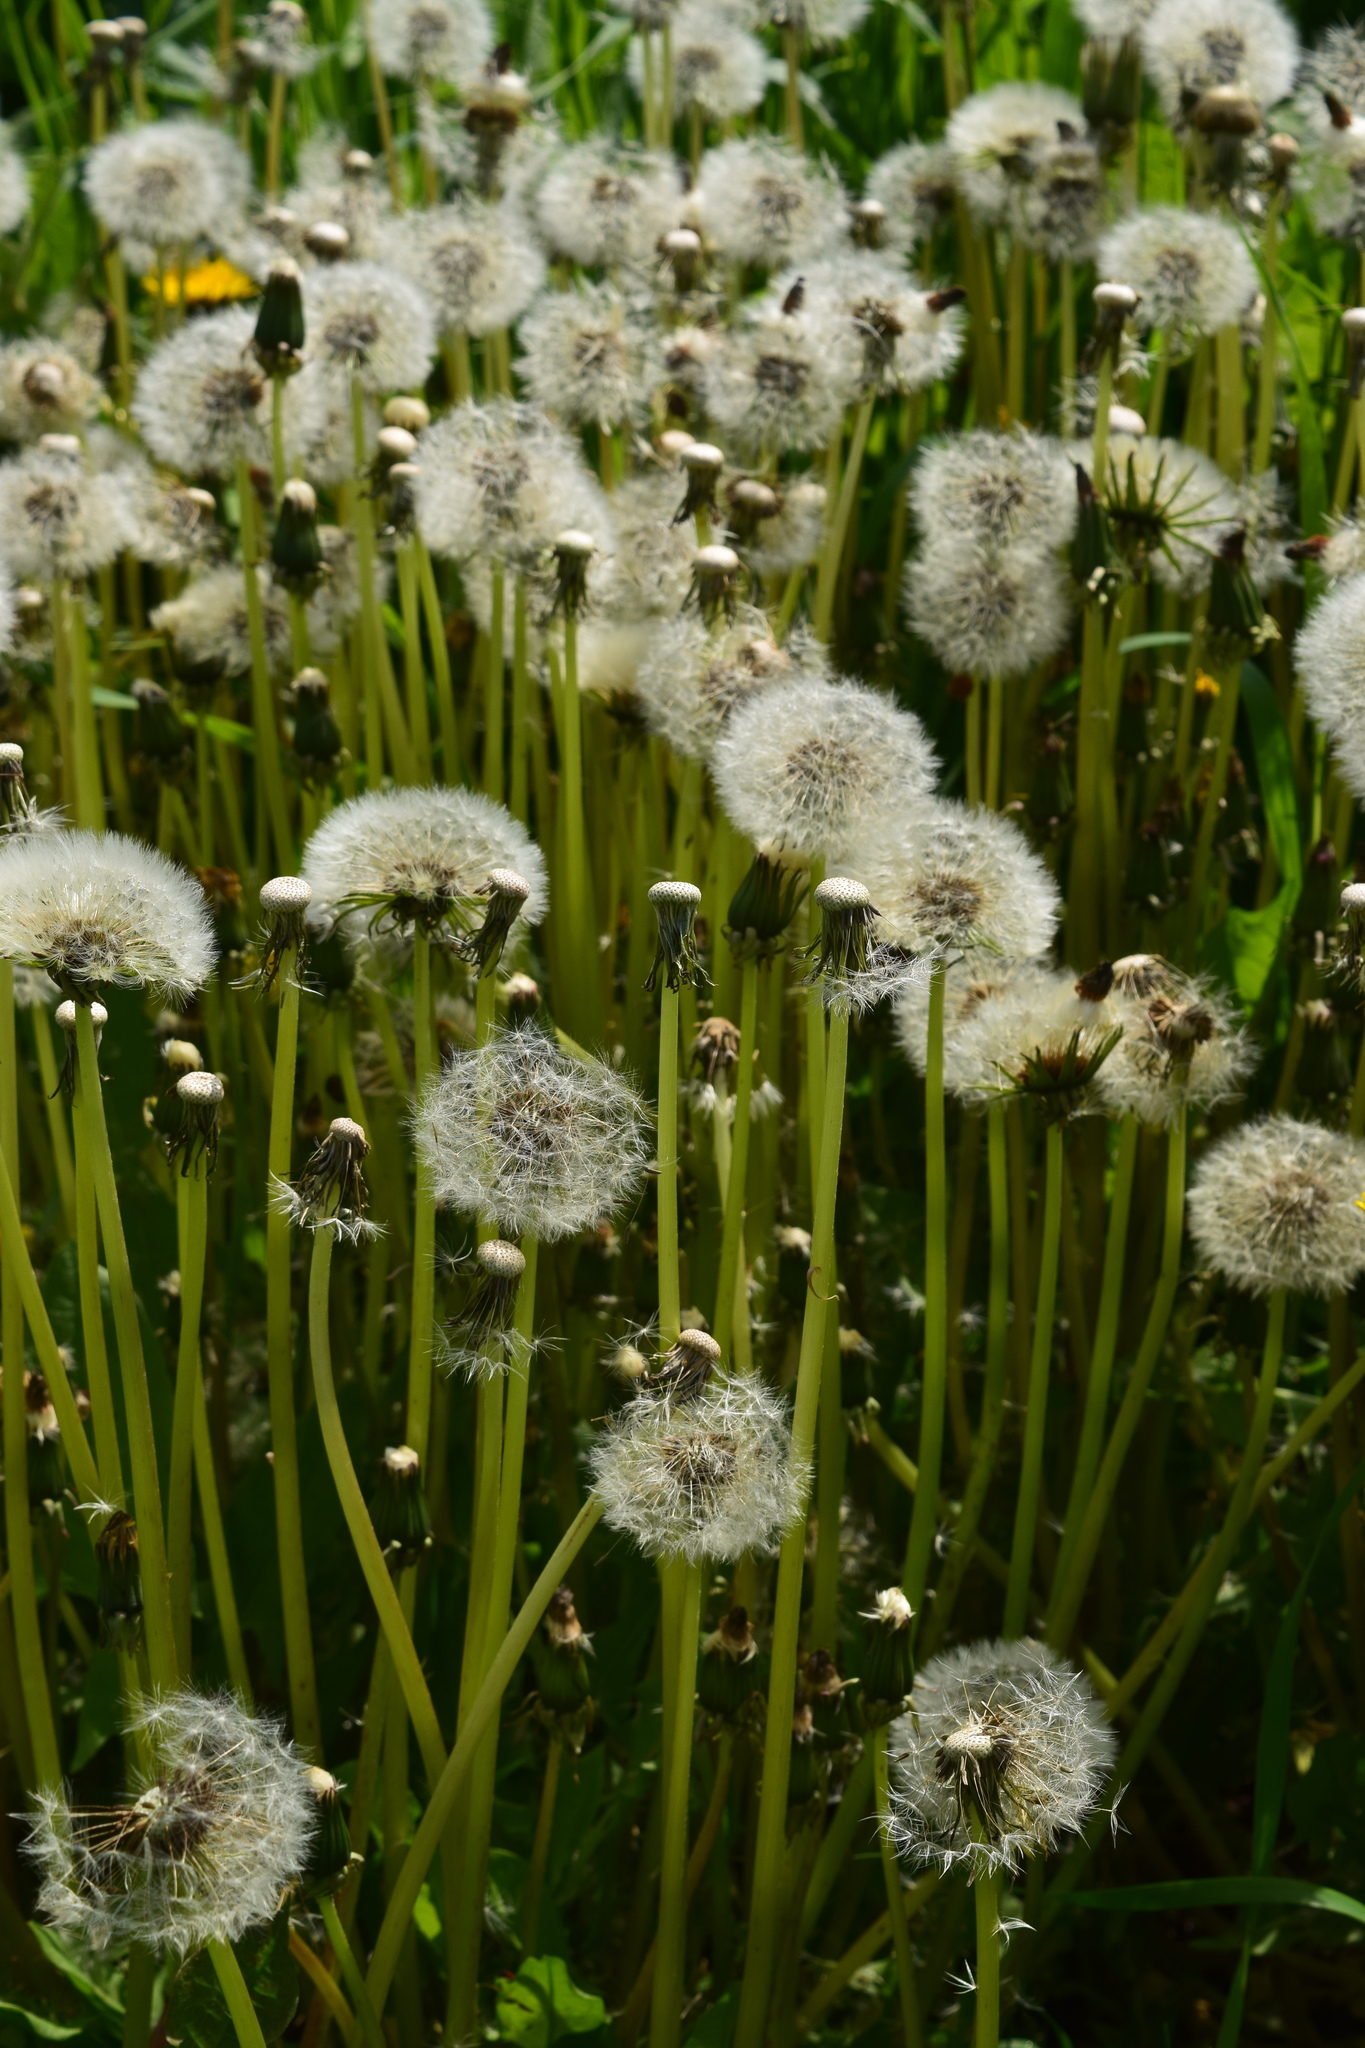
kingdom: Plantae
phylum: Tracheophyta
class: Magnoliopsida
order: Asterales
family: Asteraceae
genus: Taraxacum
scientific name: Taraxacum officinale
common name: Common dandelion
